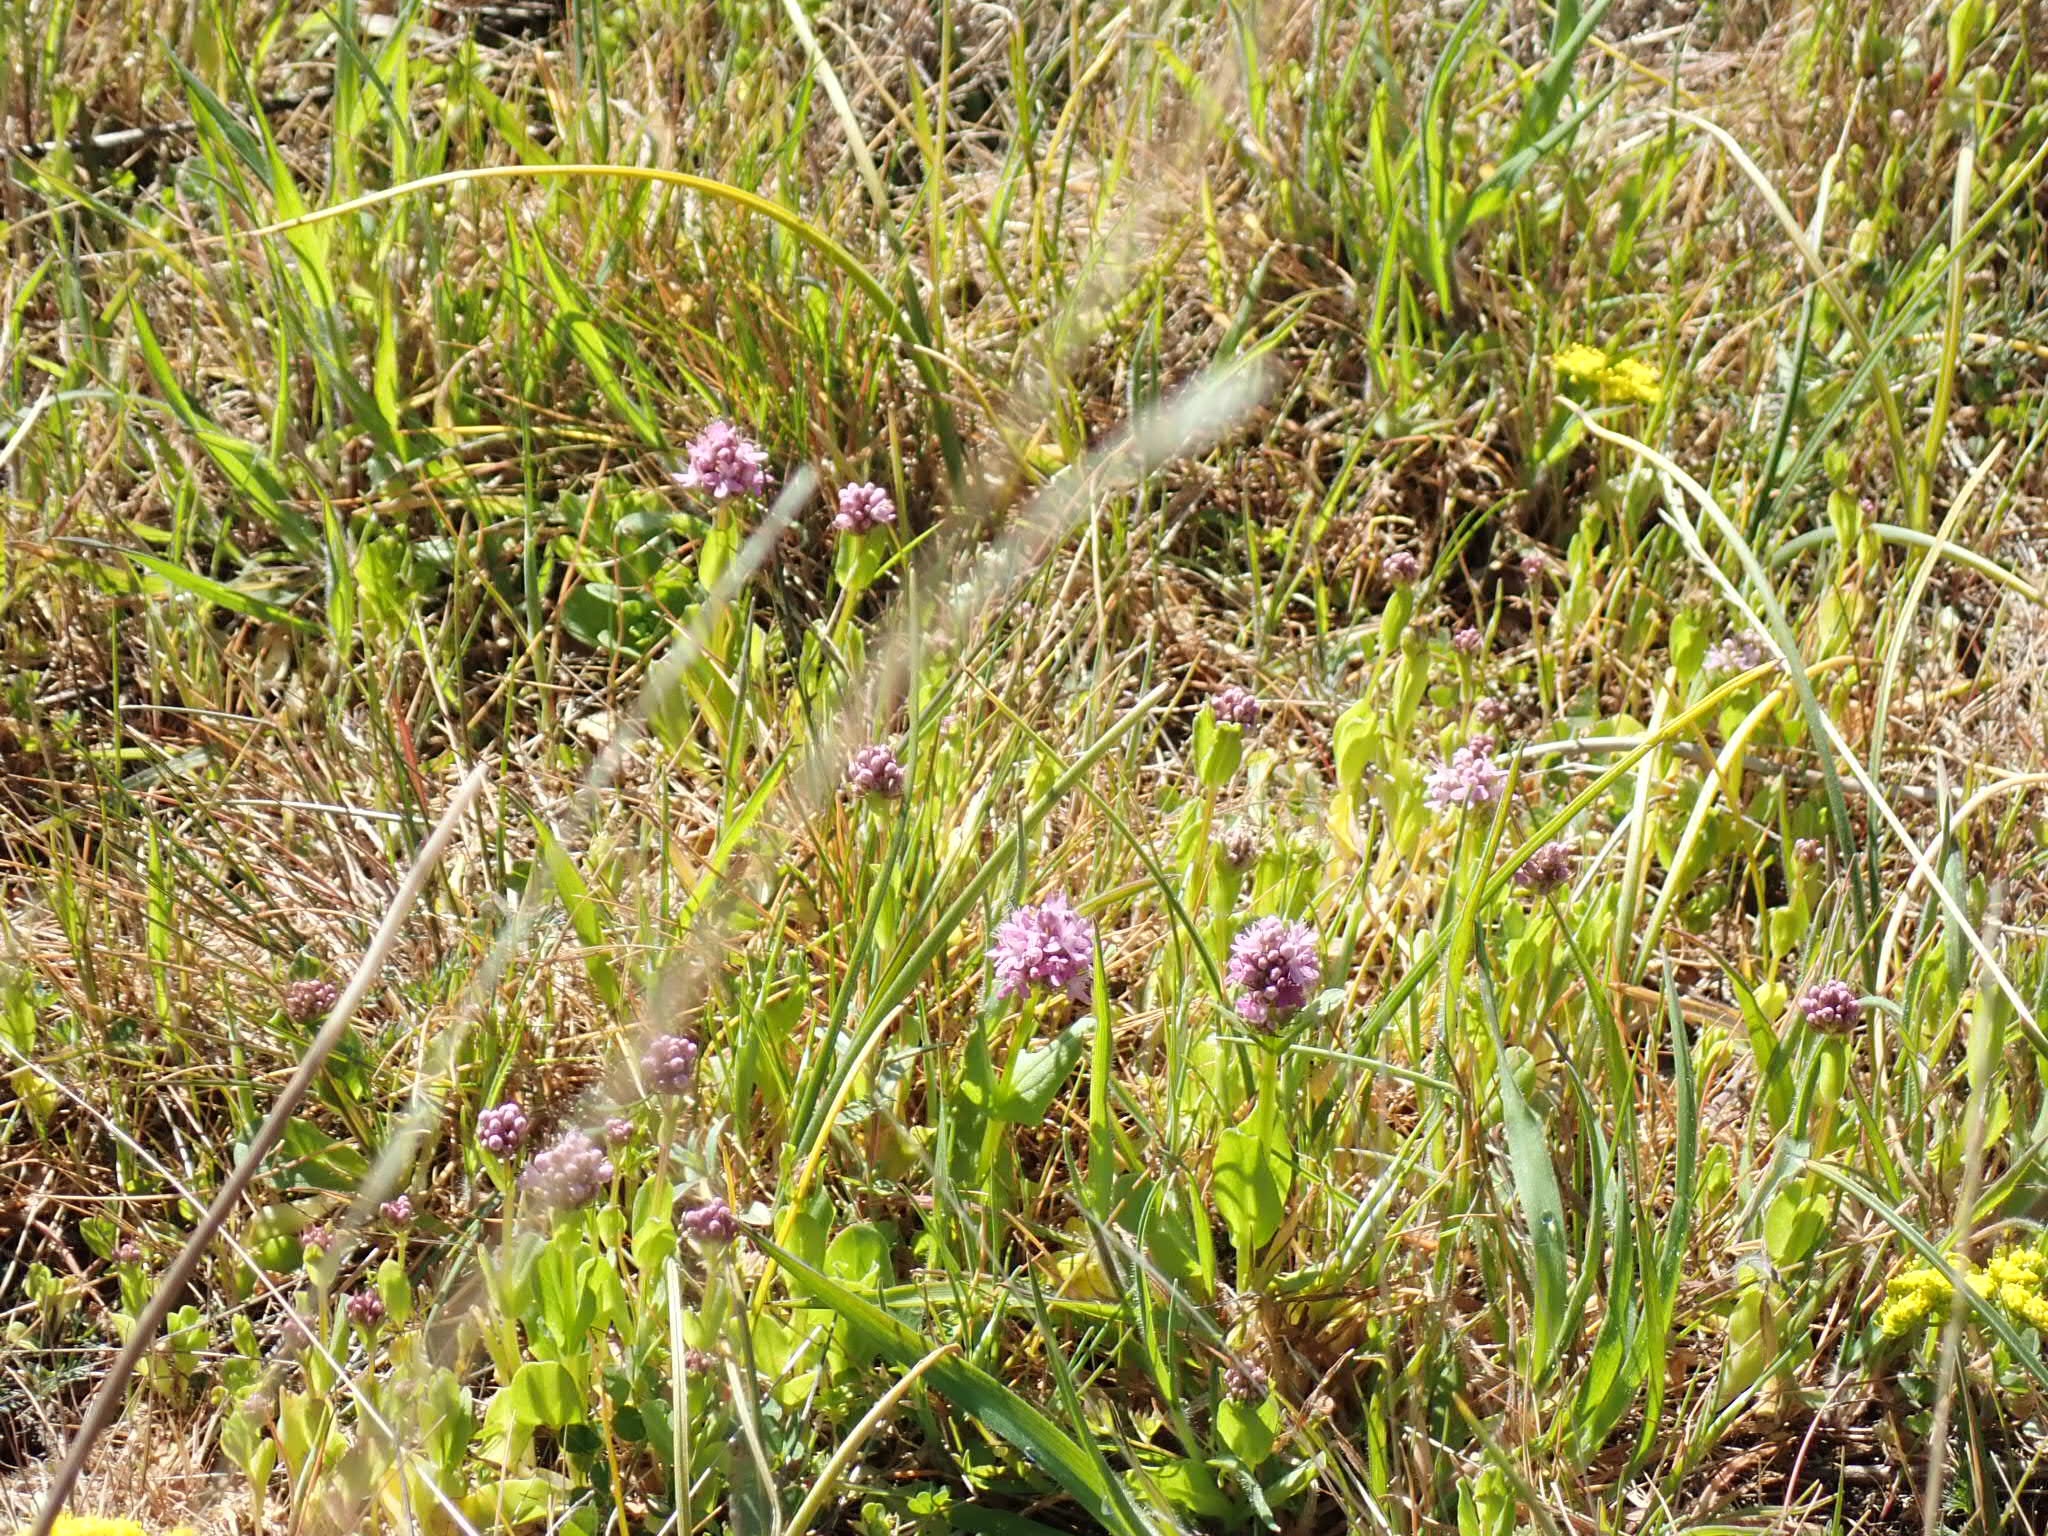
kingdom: Plantae
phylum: Tracheophyta
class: Magnoliopsida
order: Dipsacales
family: Caprifoliaceae
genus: Plectritis
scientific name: Plectritis congesta
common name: Pink plectritis
